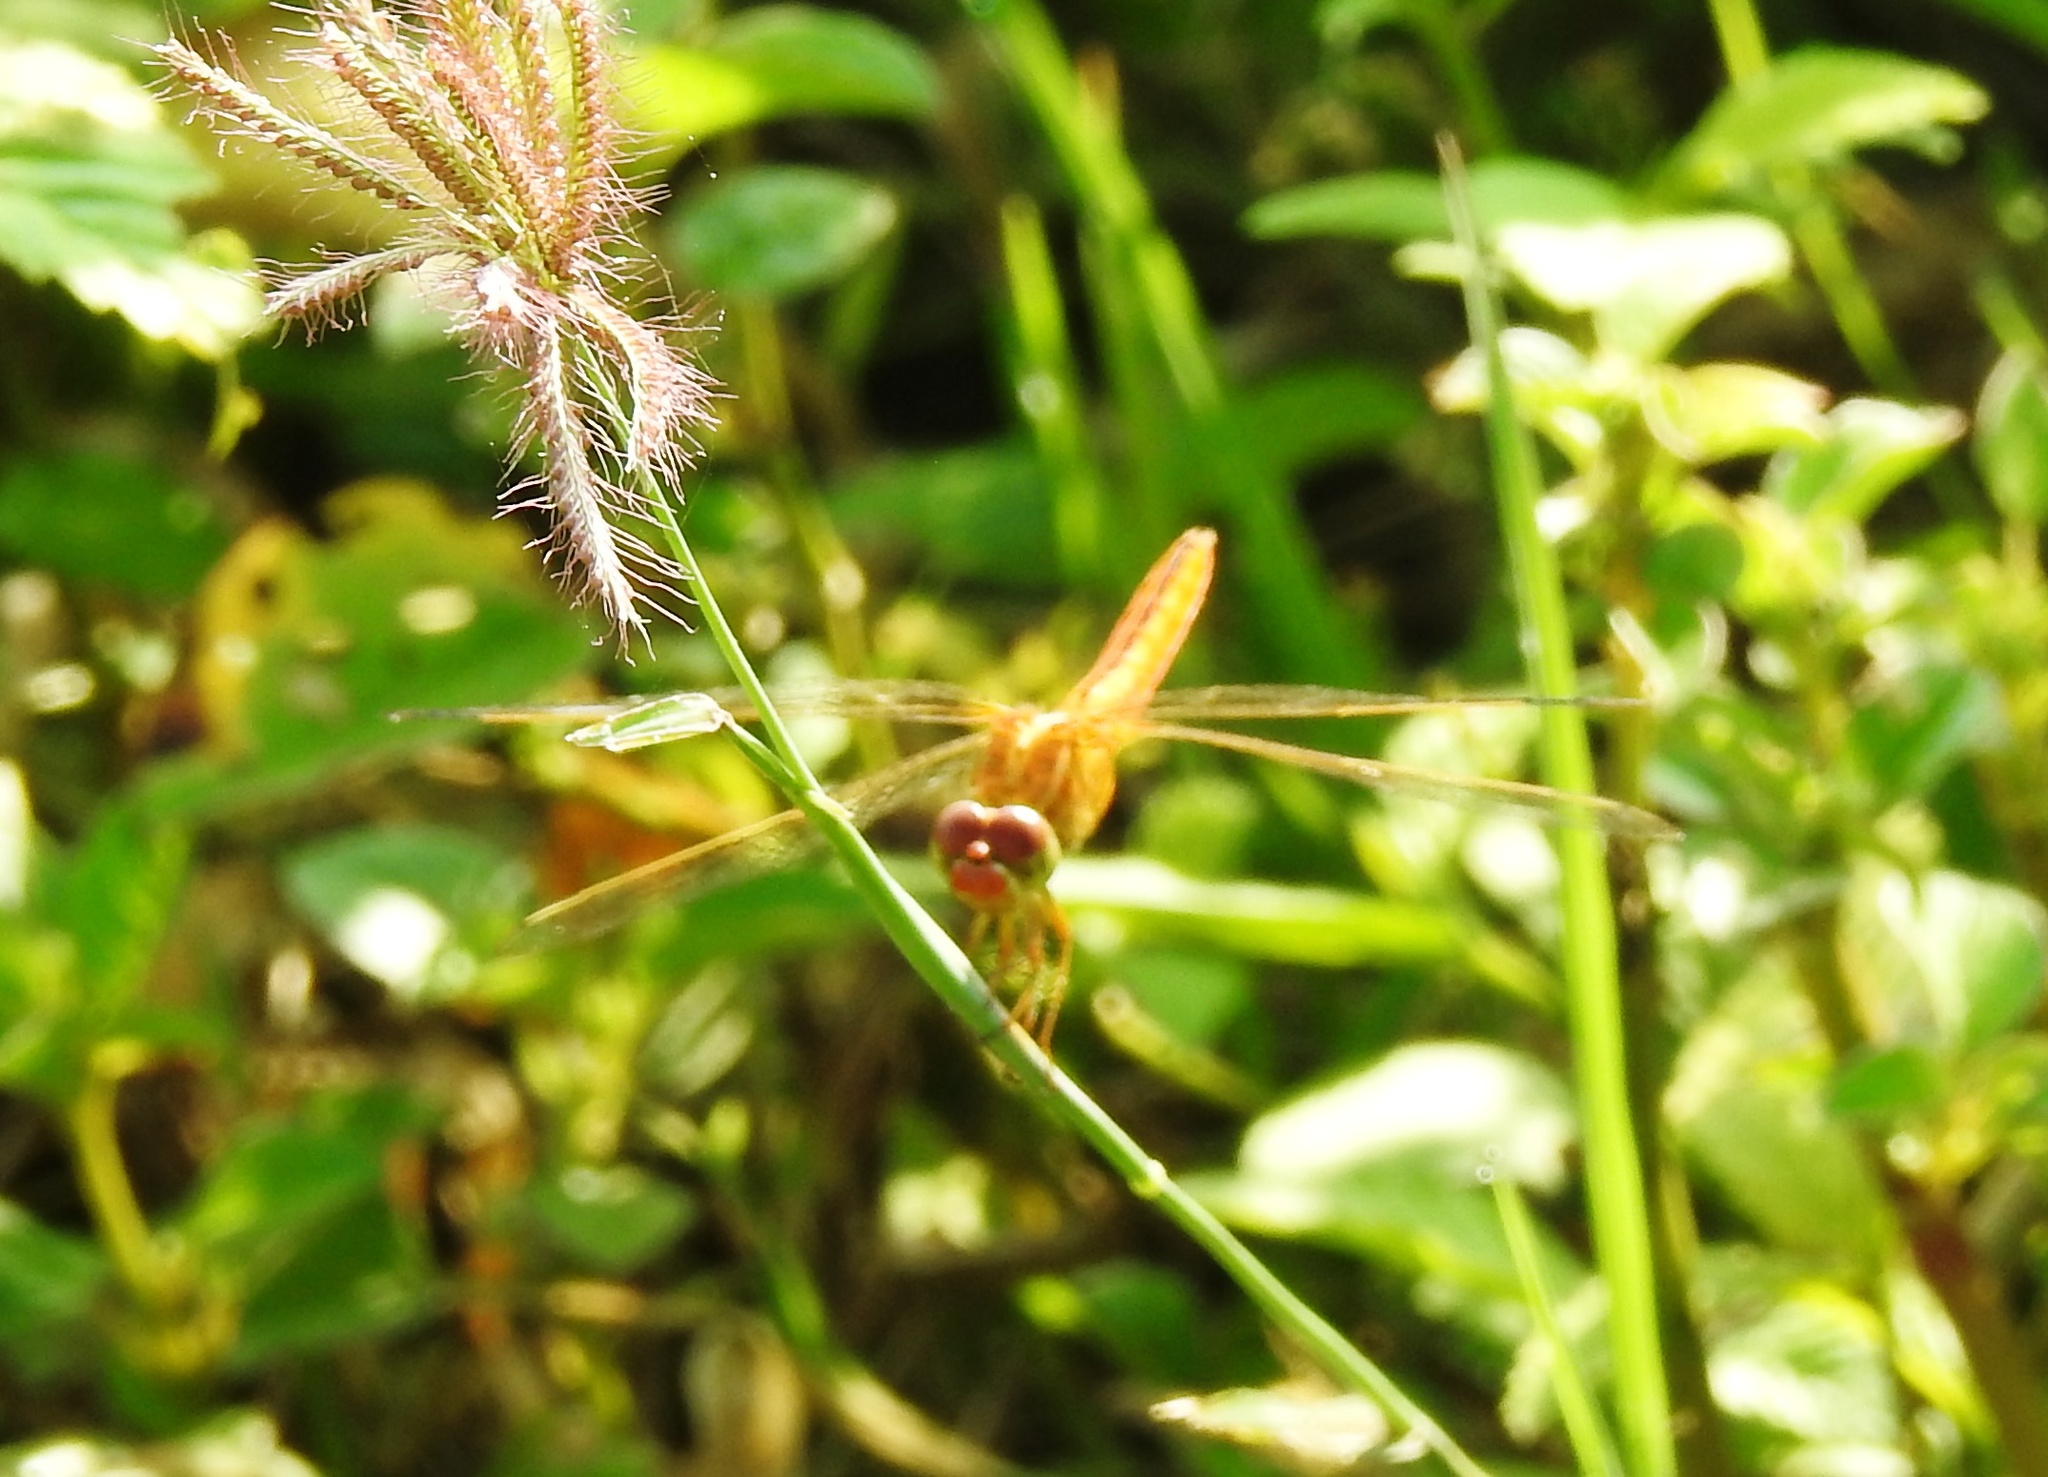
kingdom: Animalia
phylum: Arthropoda
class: Insecta
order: Odonata
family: Libellulidae
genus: Crocothemis
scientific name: Crocothemis servilia
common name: Scarlet skimmer
